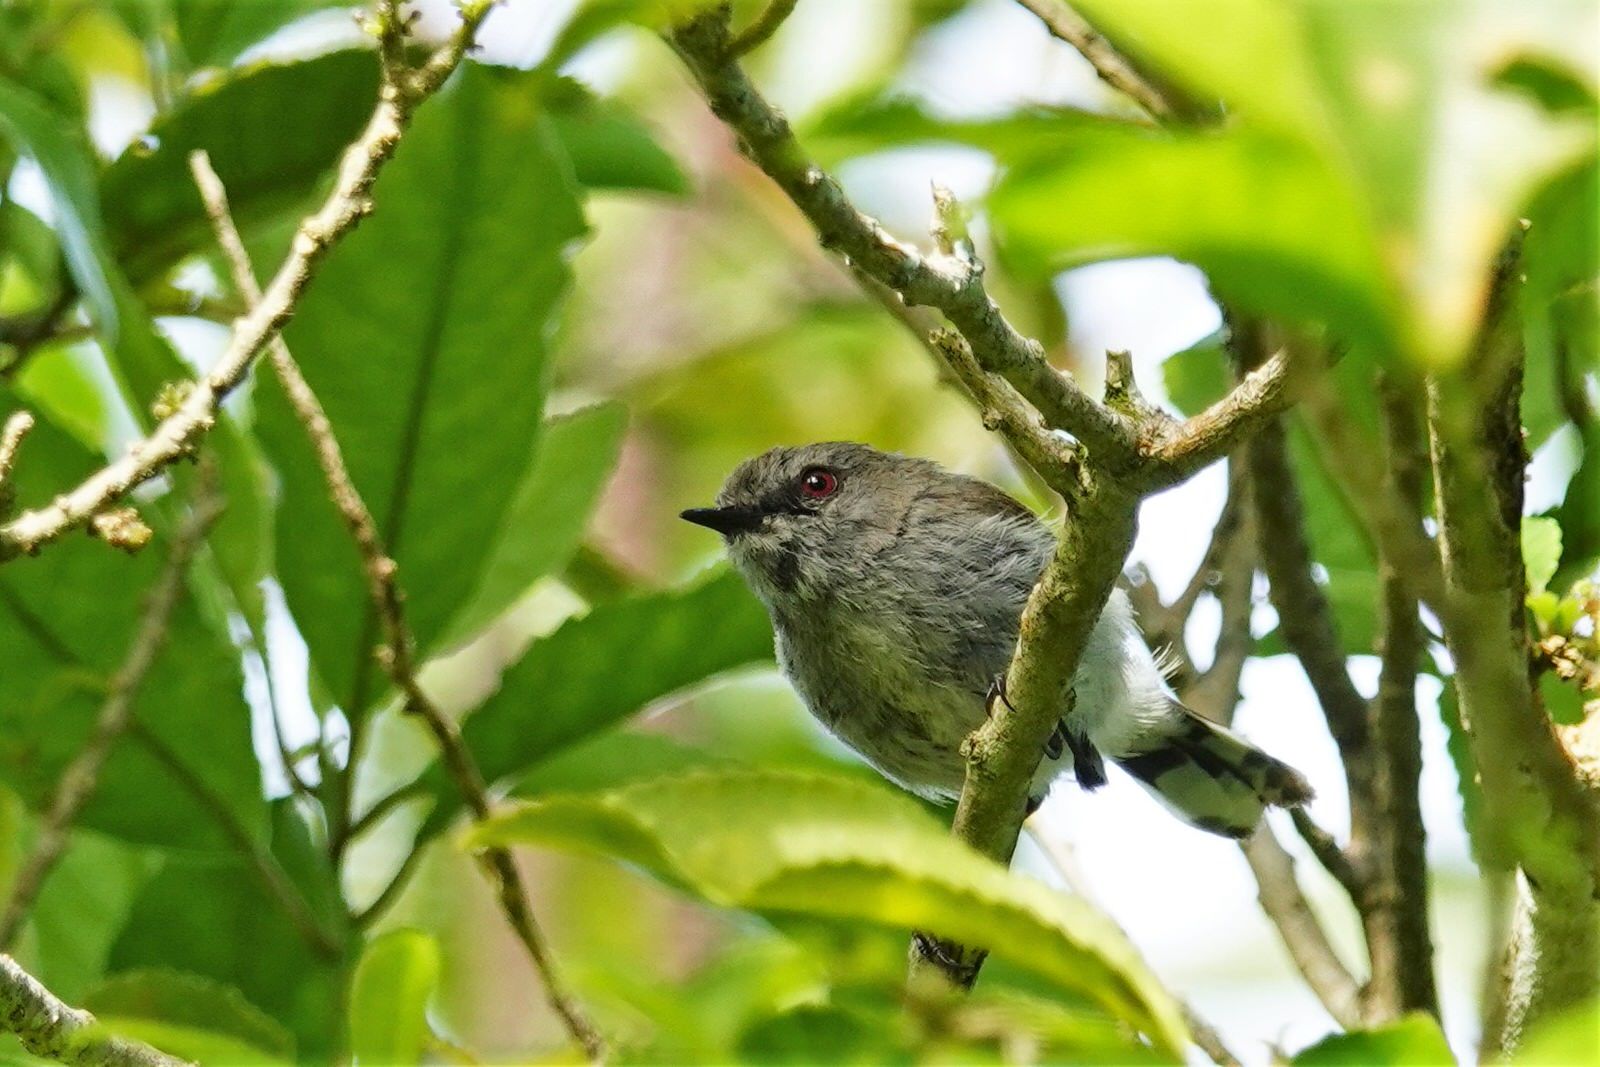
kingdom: Animalia
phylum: Chordata
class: Aves
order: Passeriformes
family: Acanthizidae
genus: Gerygone
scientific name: Gerygone igata
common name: Grey gerygone
